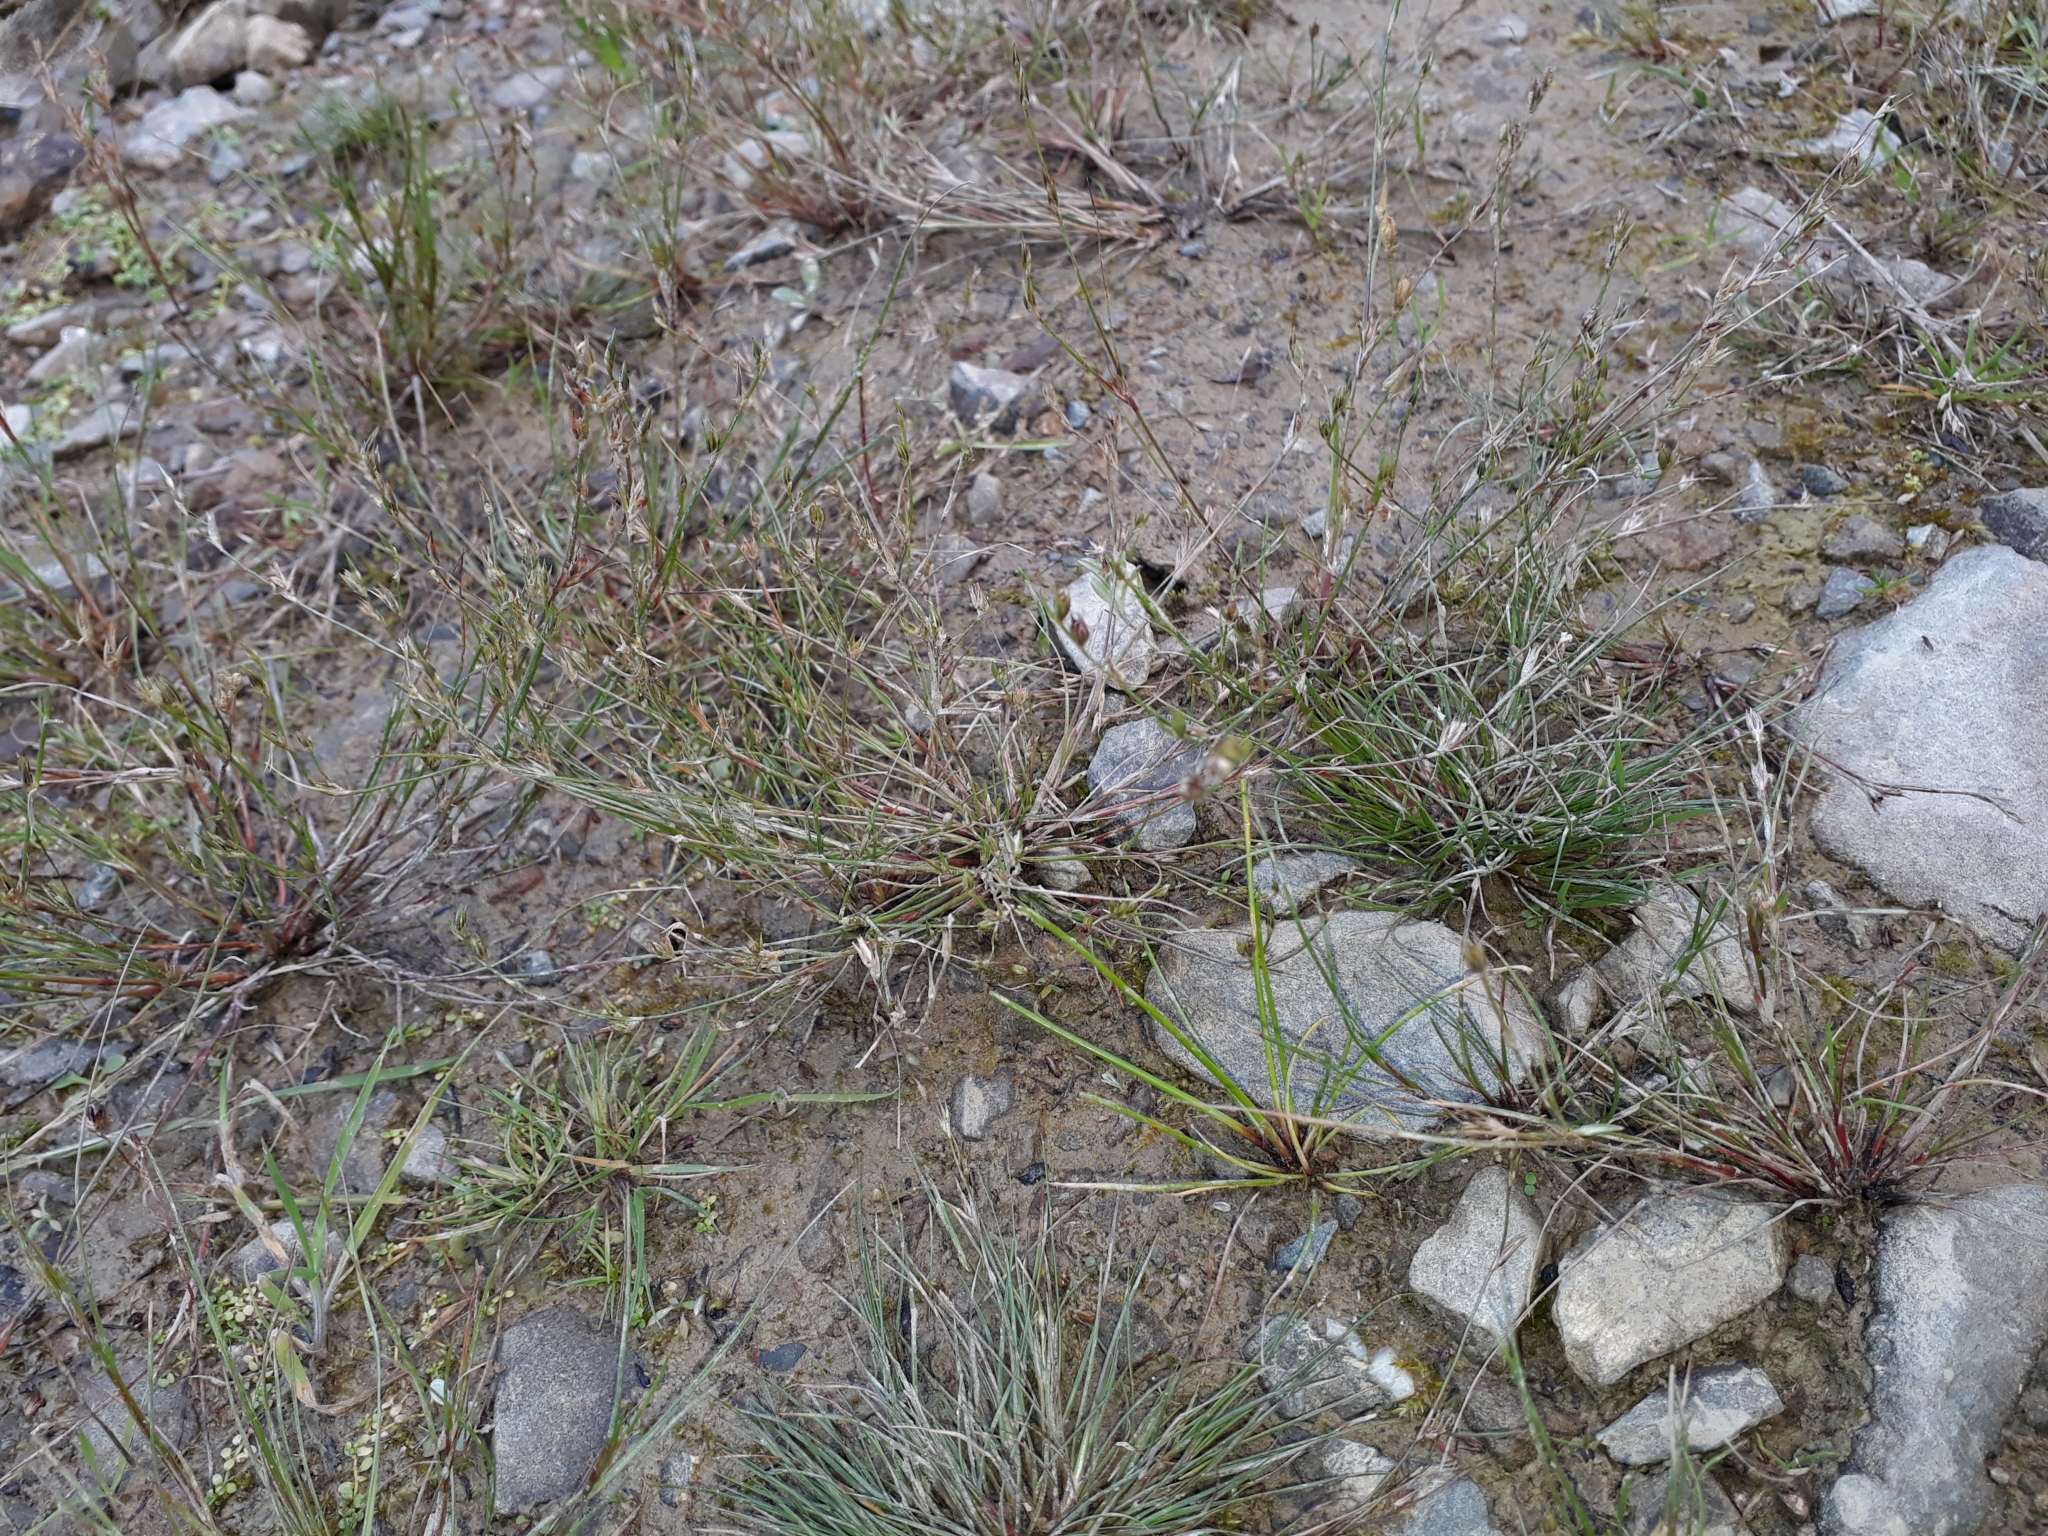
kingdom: Plantae
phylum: Tracheophyta
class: Liliopsida
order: Poales
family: Juncaceae
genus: Juncus
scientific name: Juncus bufonius
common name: Toad rush
